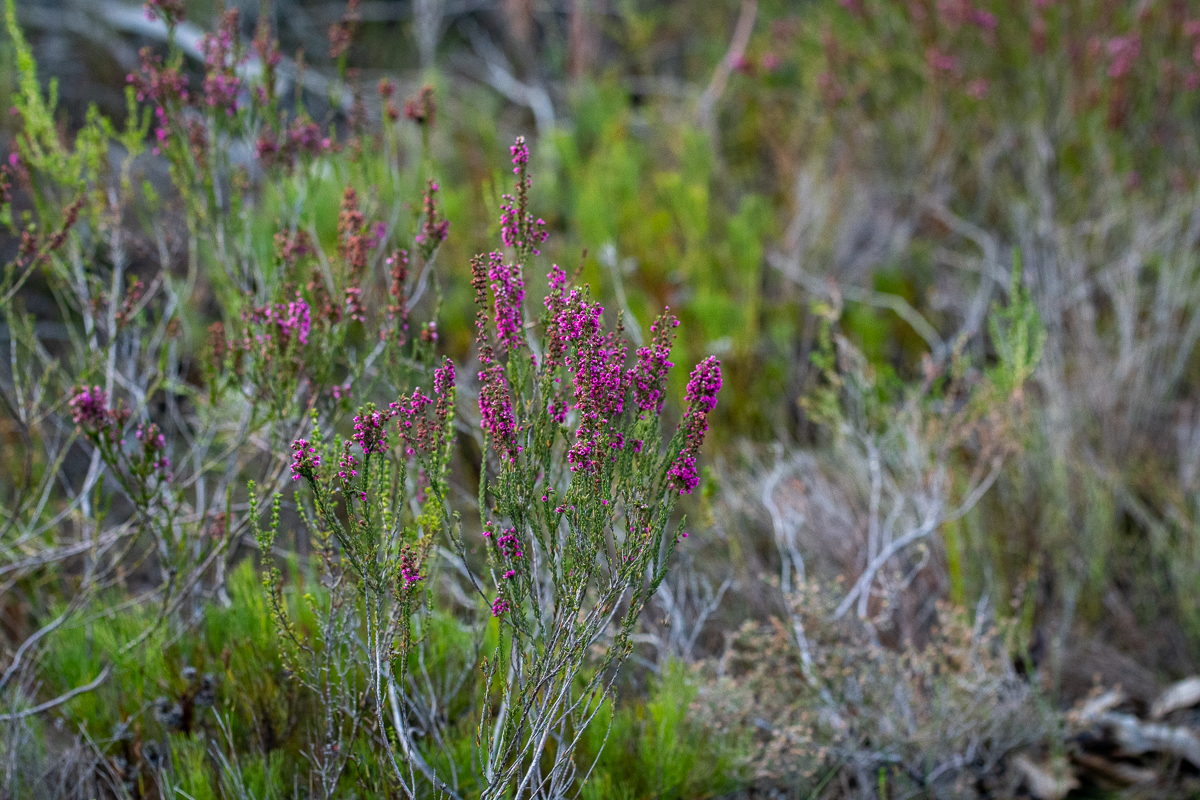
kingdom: Plantae
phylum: Tracheophyta
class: Magnoliopsida
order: Ericales
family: Ericaceae
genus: Erica
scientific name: Erica pulchella
